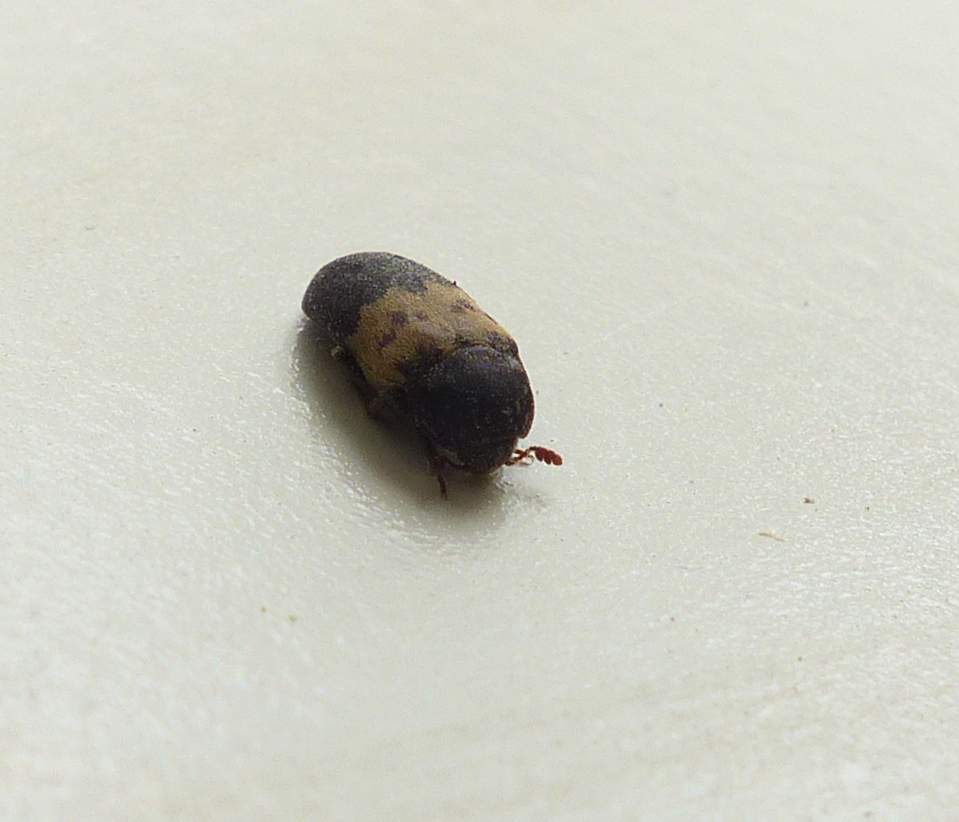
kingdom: Animalia
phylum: Arthropoda
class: Insecta
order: Coleoptera
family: Dermestidae
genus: Dermestes
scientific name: Dermestes lardarius
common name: Larder beetle
